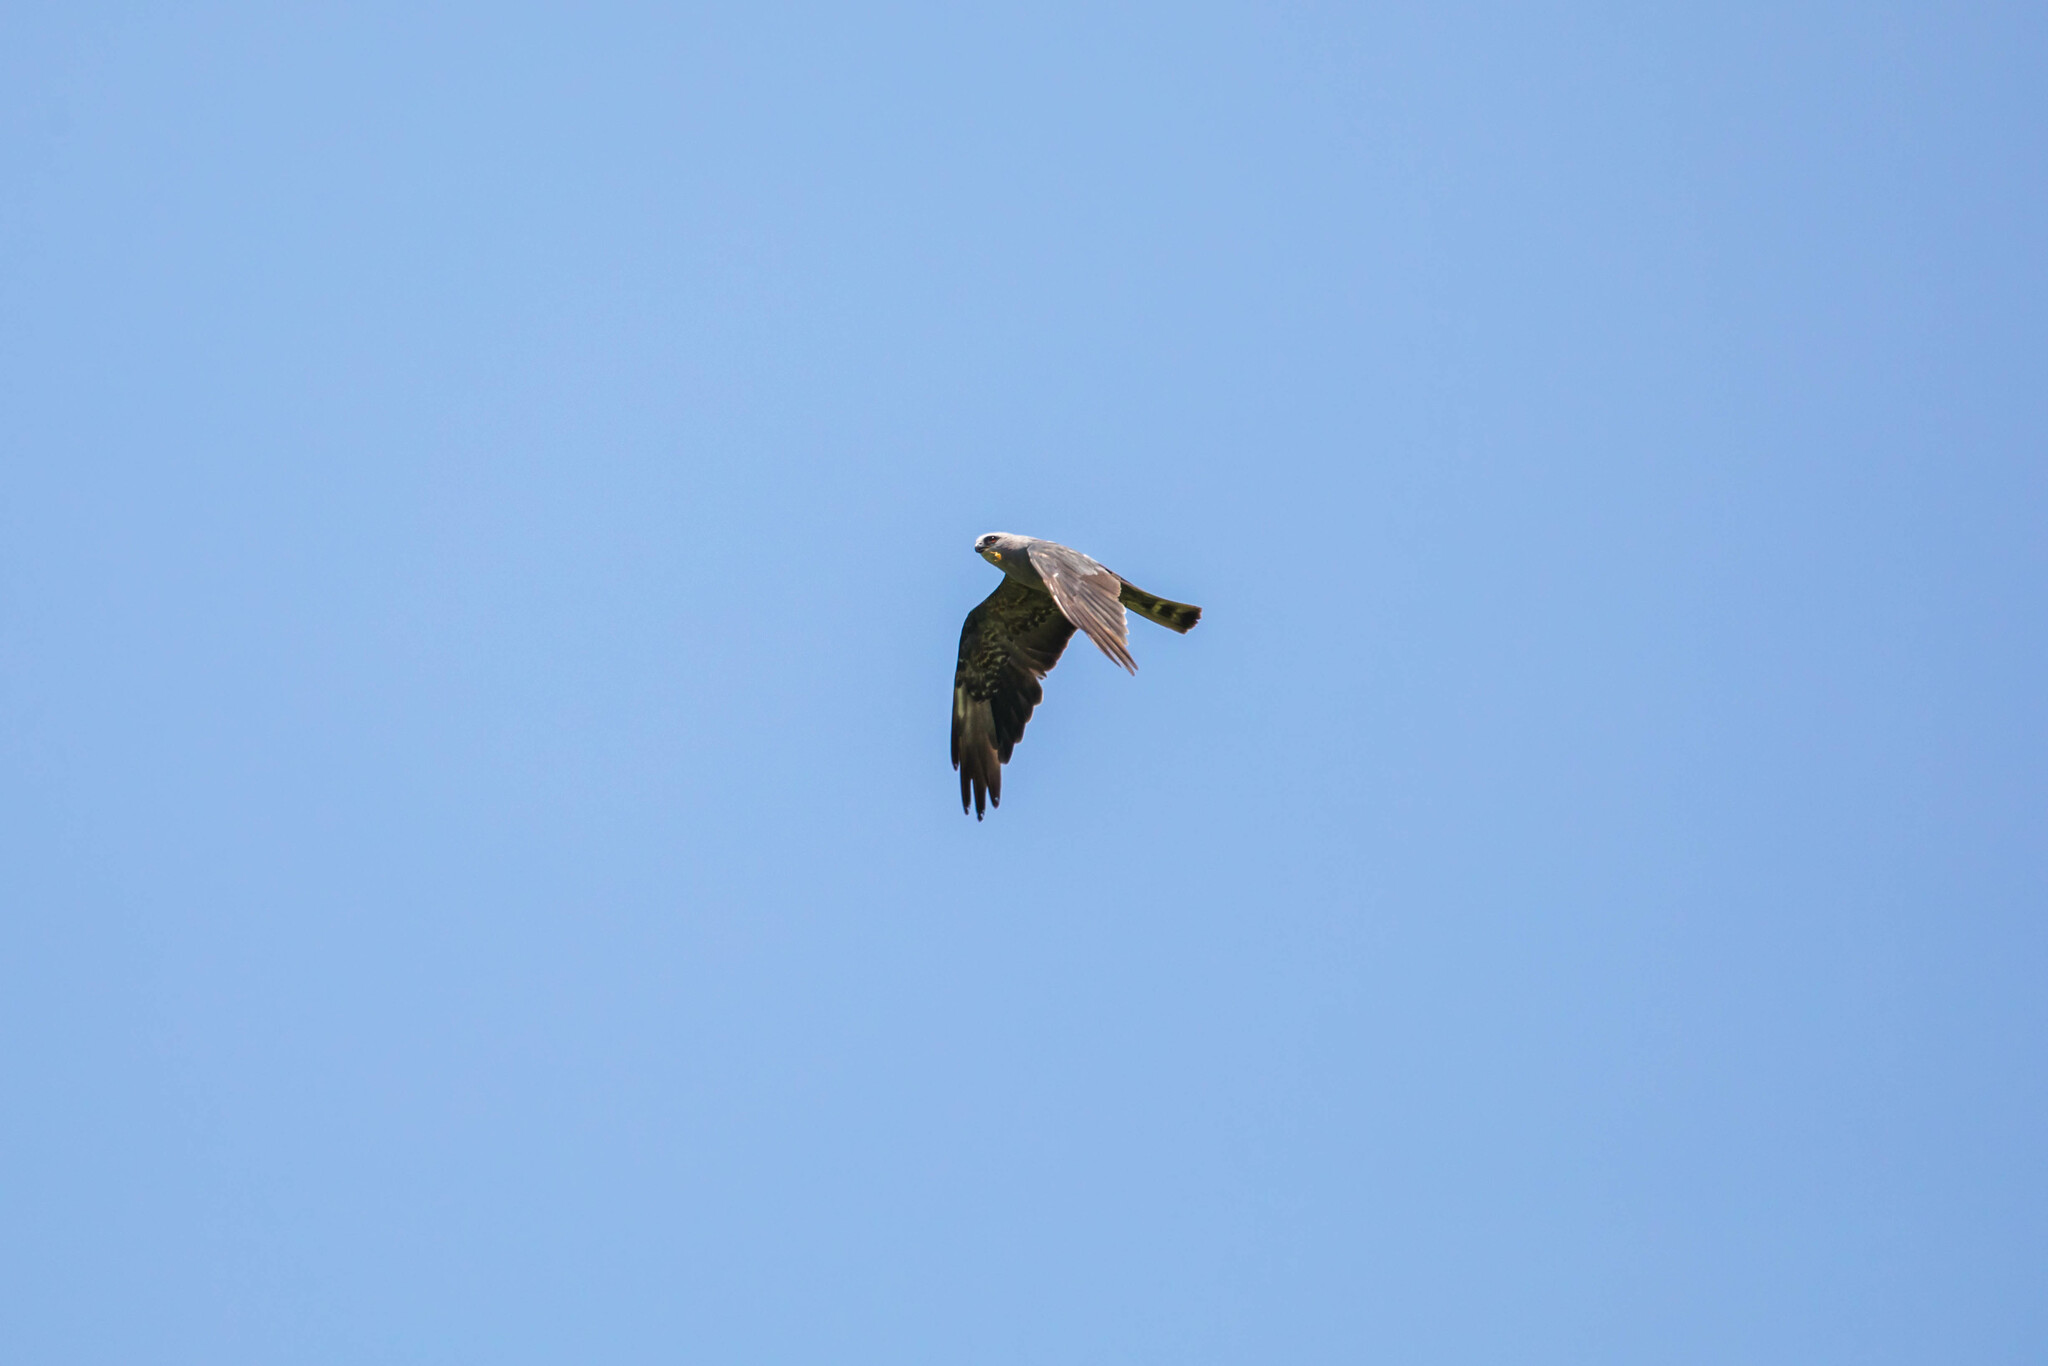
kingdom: Animalia
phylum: Chordata
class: Aves
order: Accipitriformes
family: Accipitridae
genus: Ictinia
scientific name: Ictinia mississippiensis
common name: Mississippi kite
